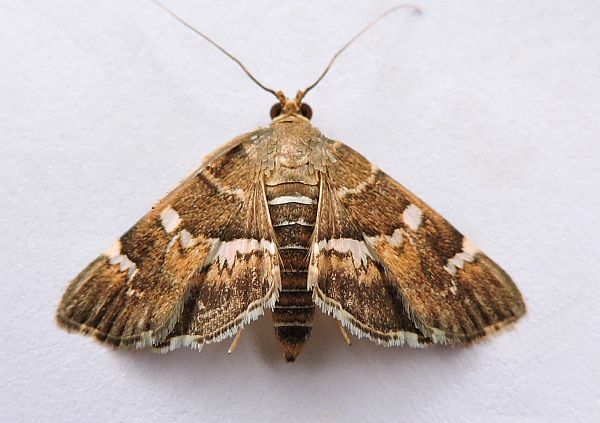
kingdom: Animalia
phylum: Arthropoda
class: Insecta
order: Lepidoptera
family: Crambidae
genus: Hymenia
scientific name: Hymenia perspectalis
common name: Spotted beet webworm
